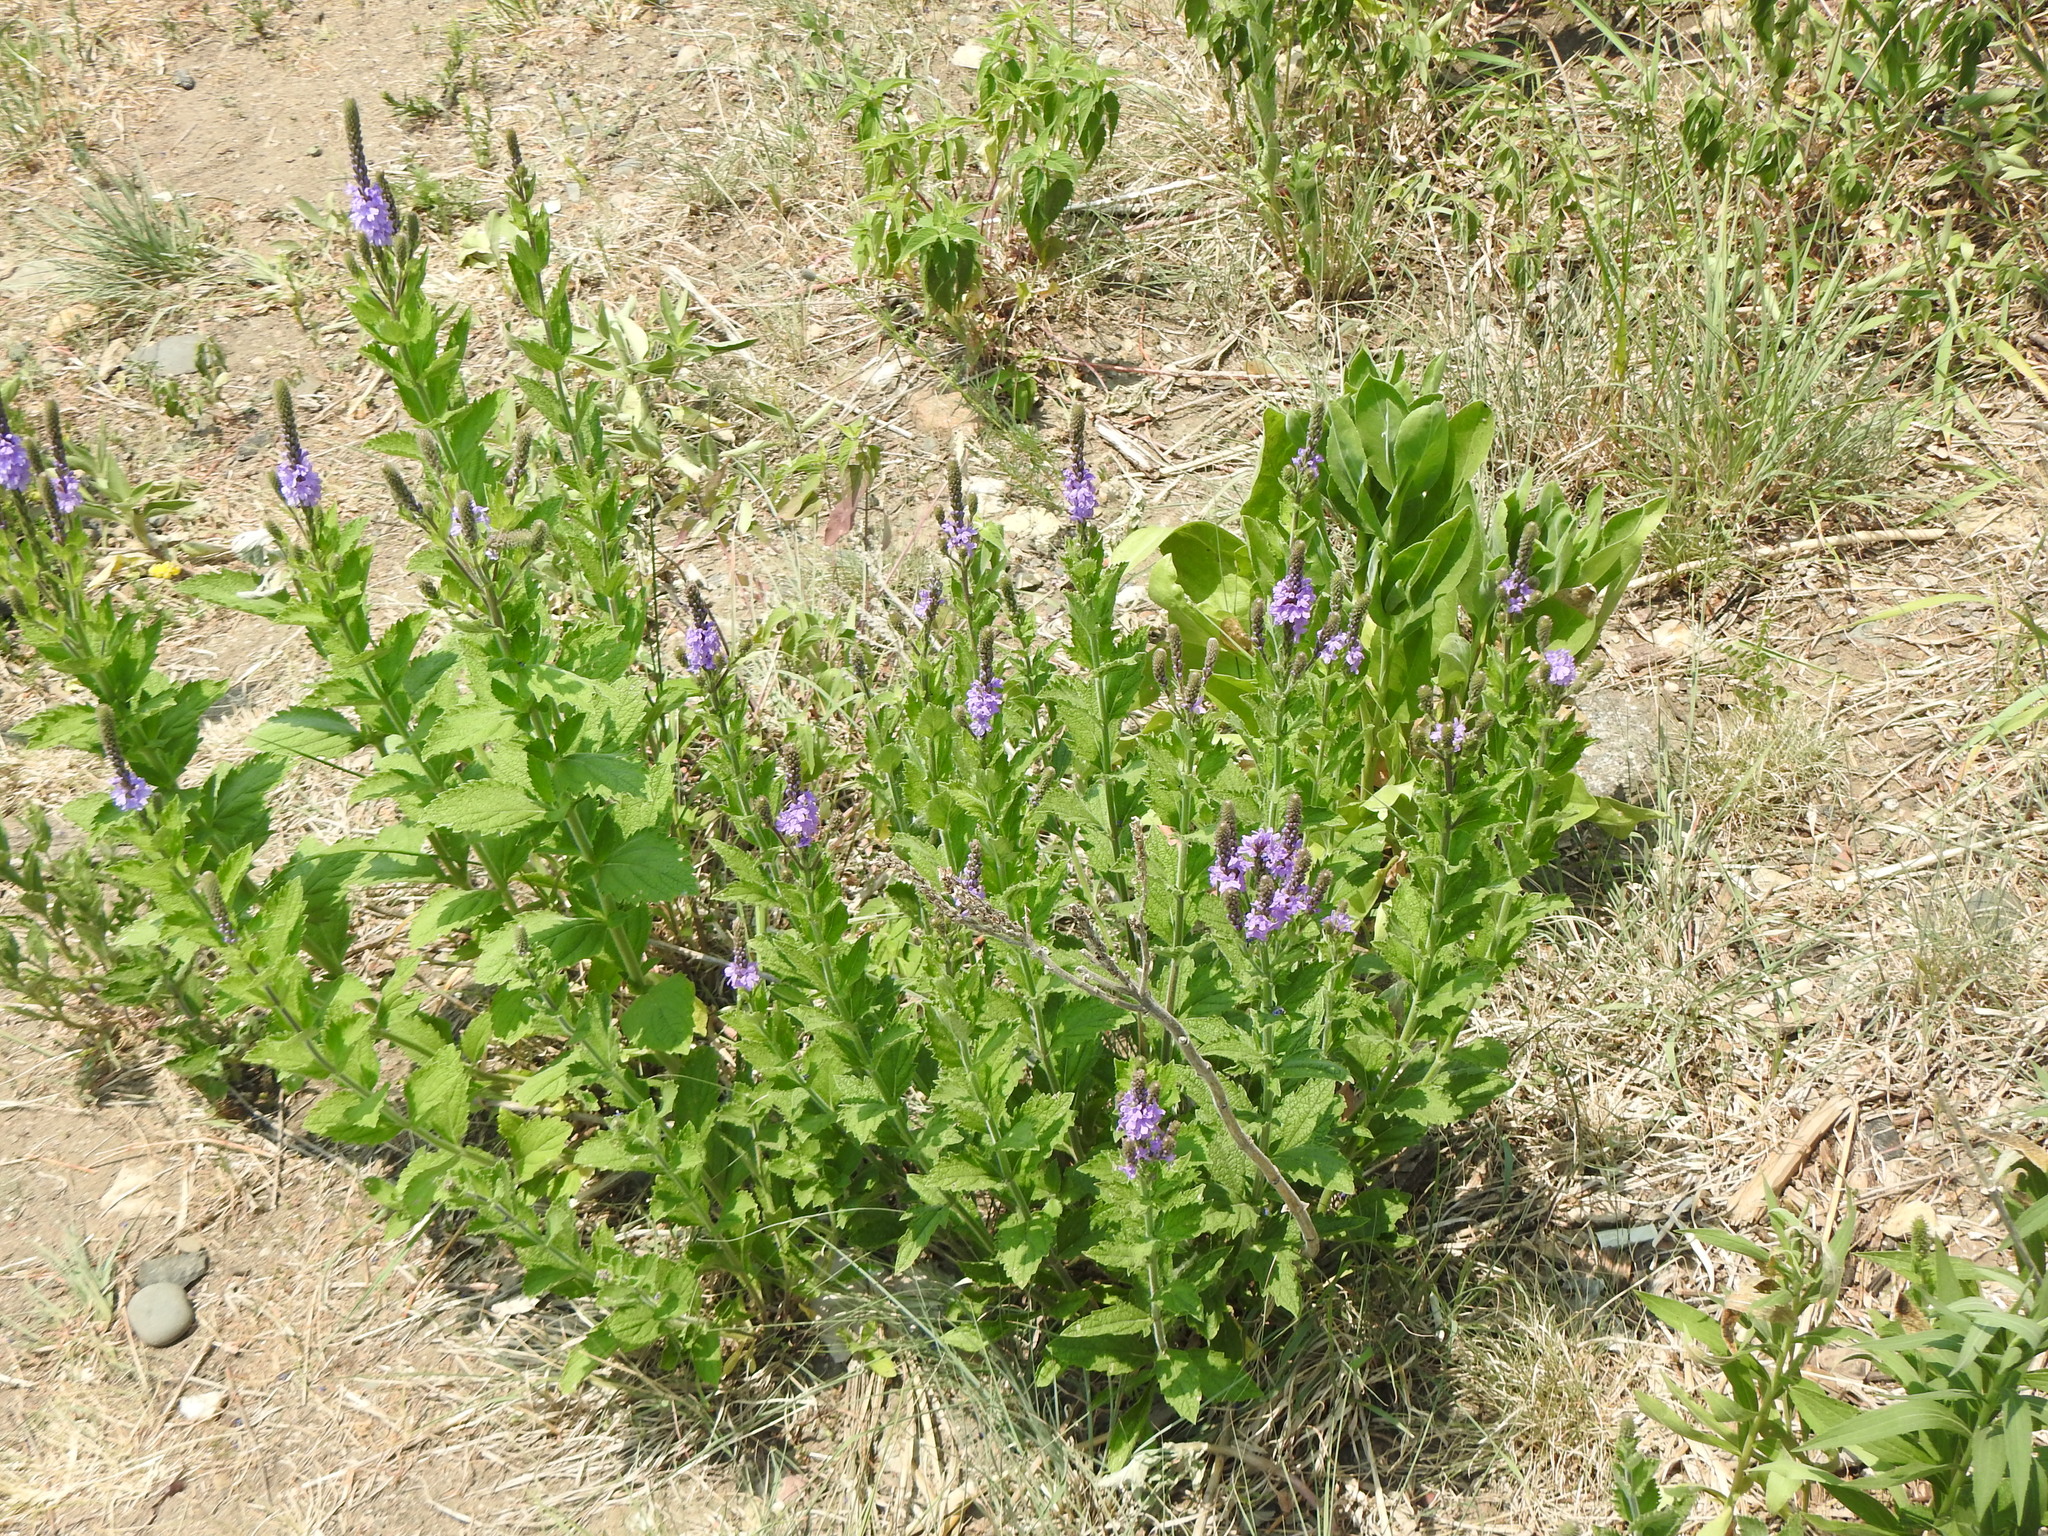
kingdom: Plantae
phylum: Tracheophyta
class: Magnoliopsida
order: Lamiales
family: Verbenaceae
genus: Verbena
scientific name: Verbena stricta
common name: Hoary vervain
